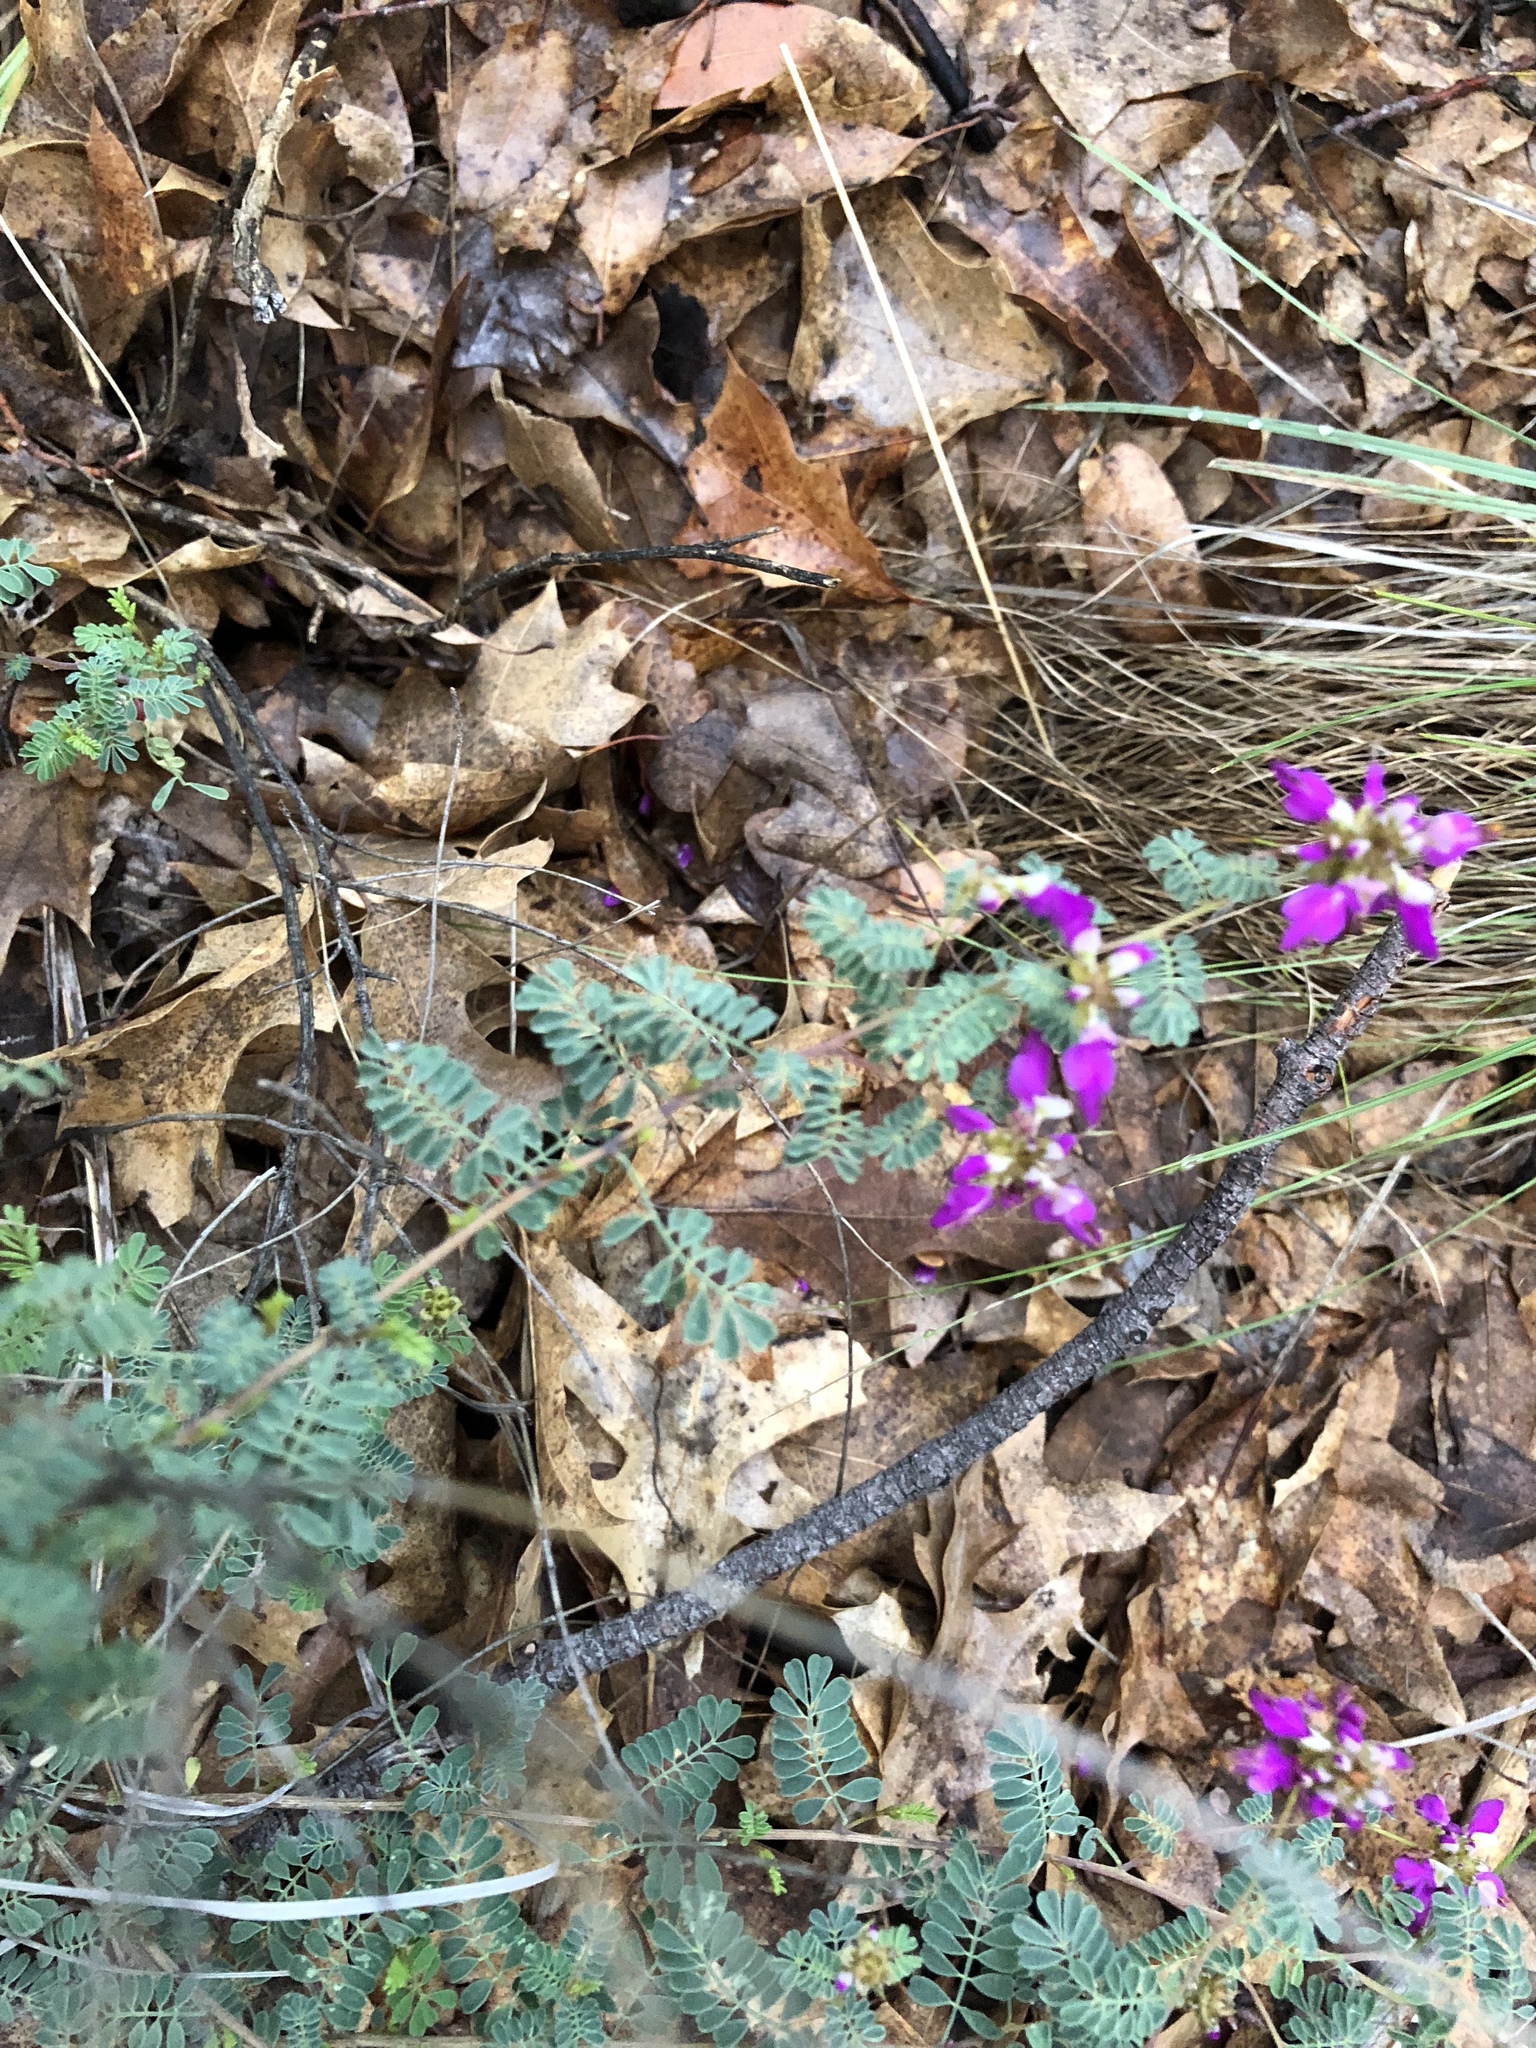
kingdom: Plantae
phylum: Tracheophyta
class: Magnoliopsida
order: Fabales
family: Fabaceae
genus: Dalea
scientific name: Dalea frutescens
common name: Black dalea
